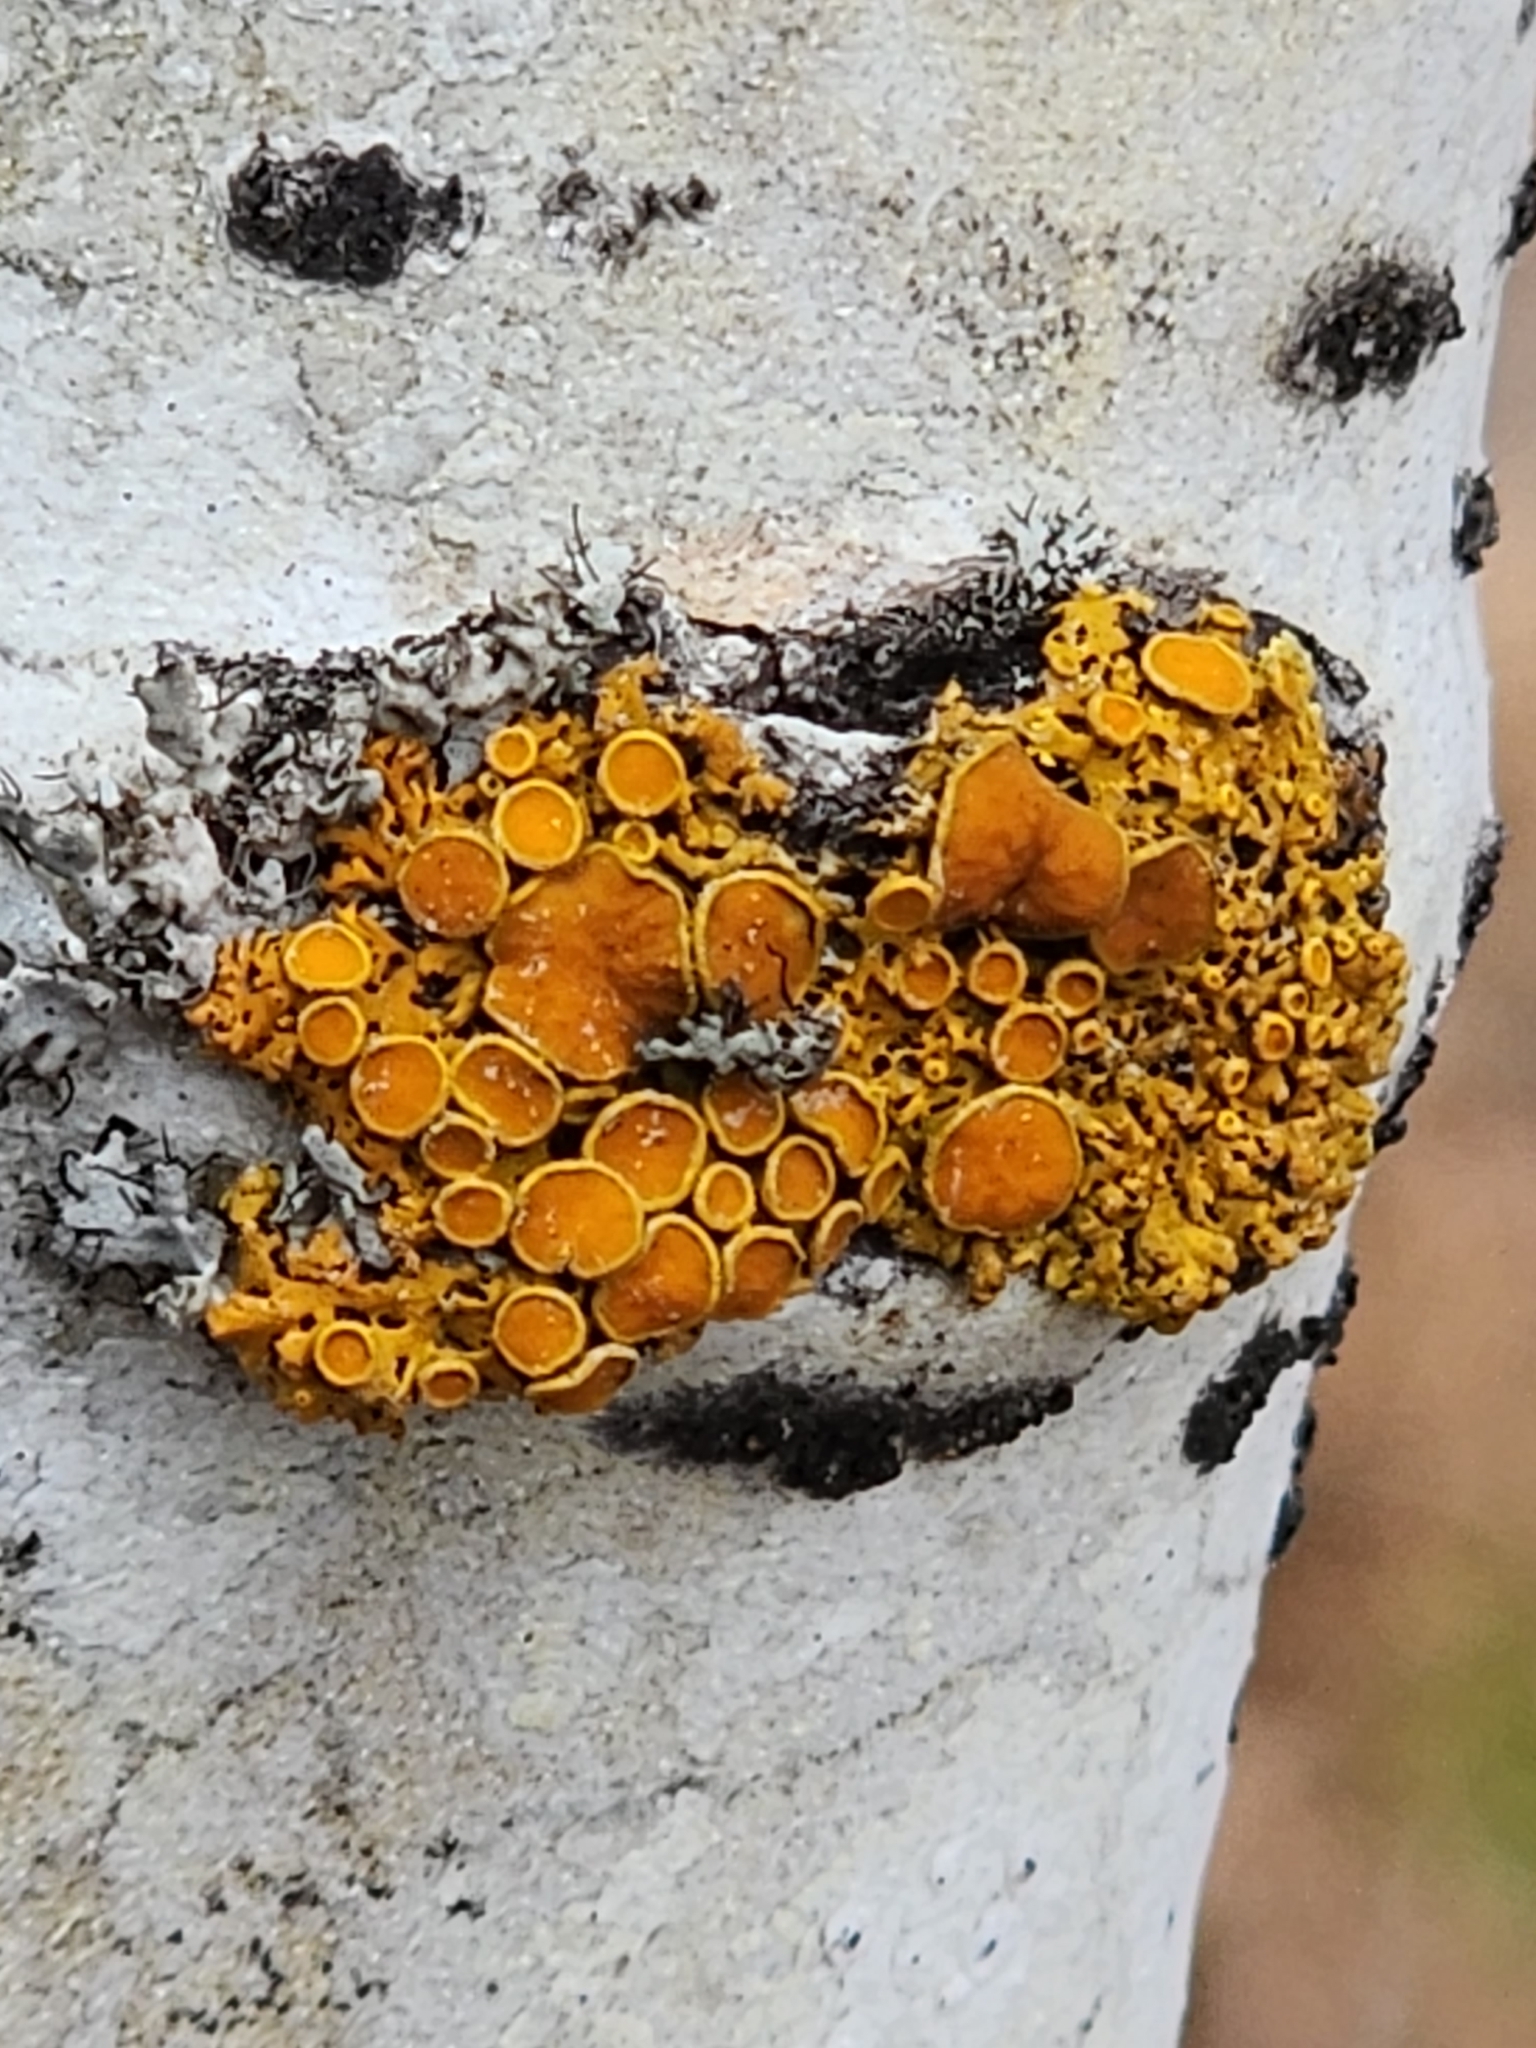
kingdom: Fungi
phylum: Ascomycota
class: Lecanoromycetes
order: Teloschistales
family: Teloschistaceae
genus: Gallowayella
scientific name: Gallowayella hasseana
